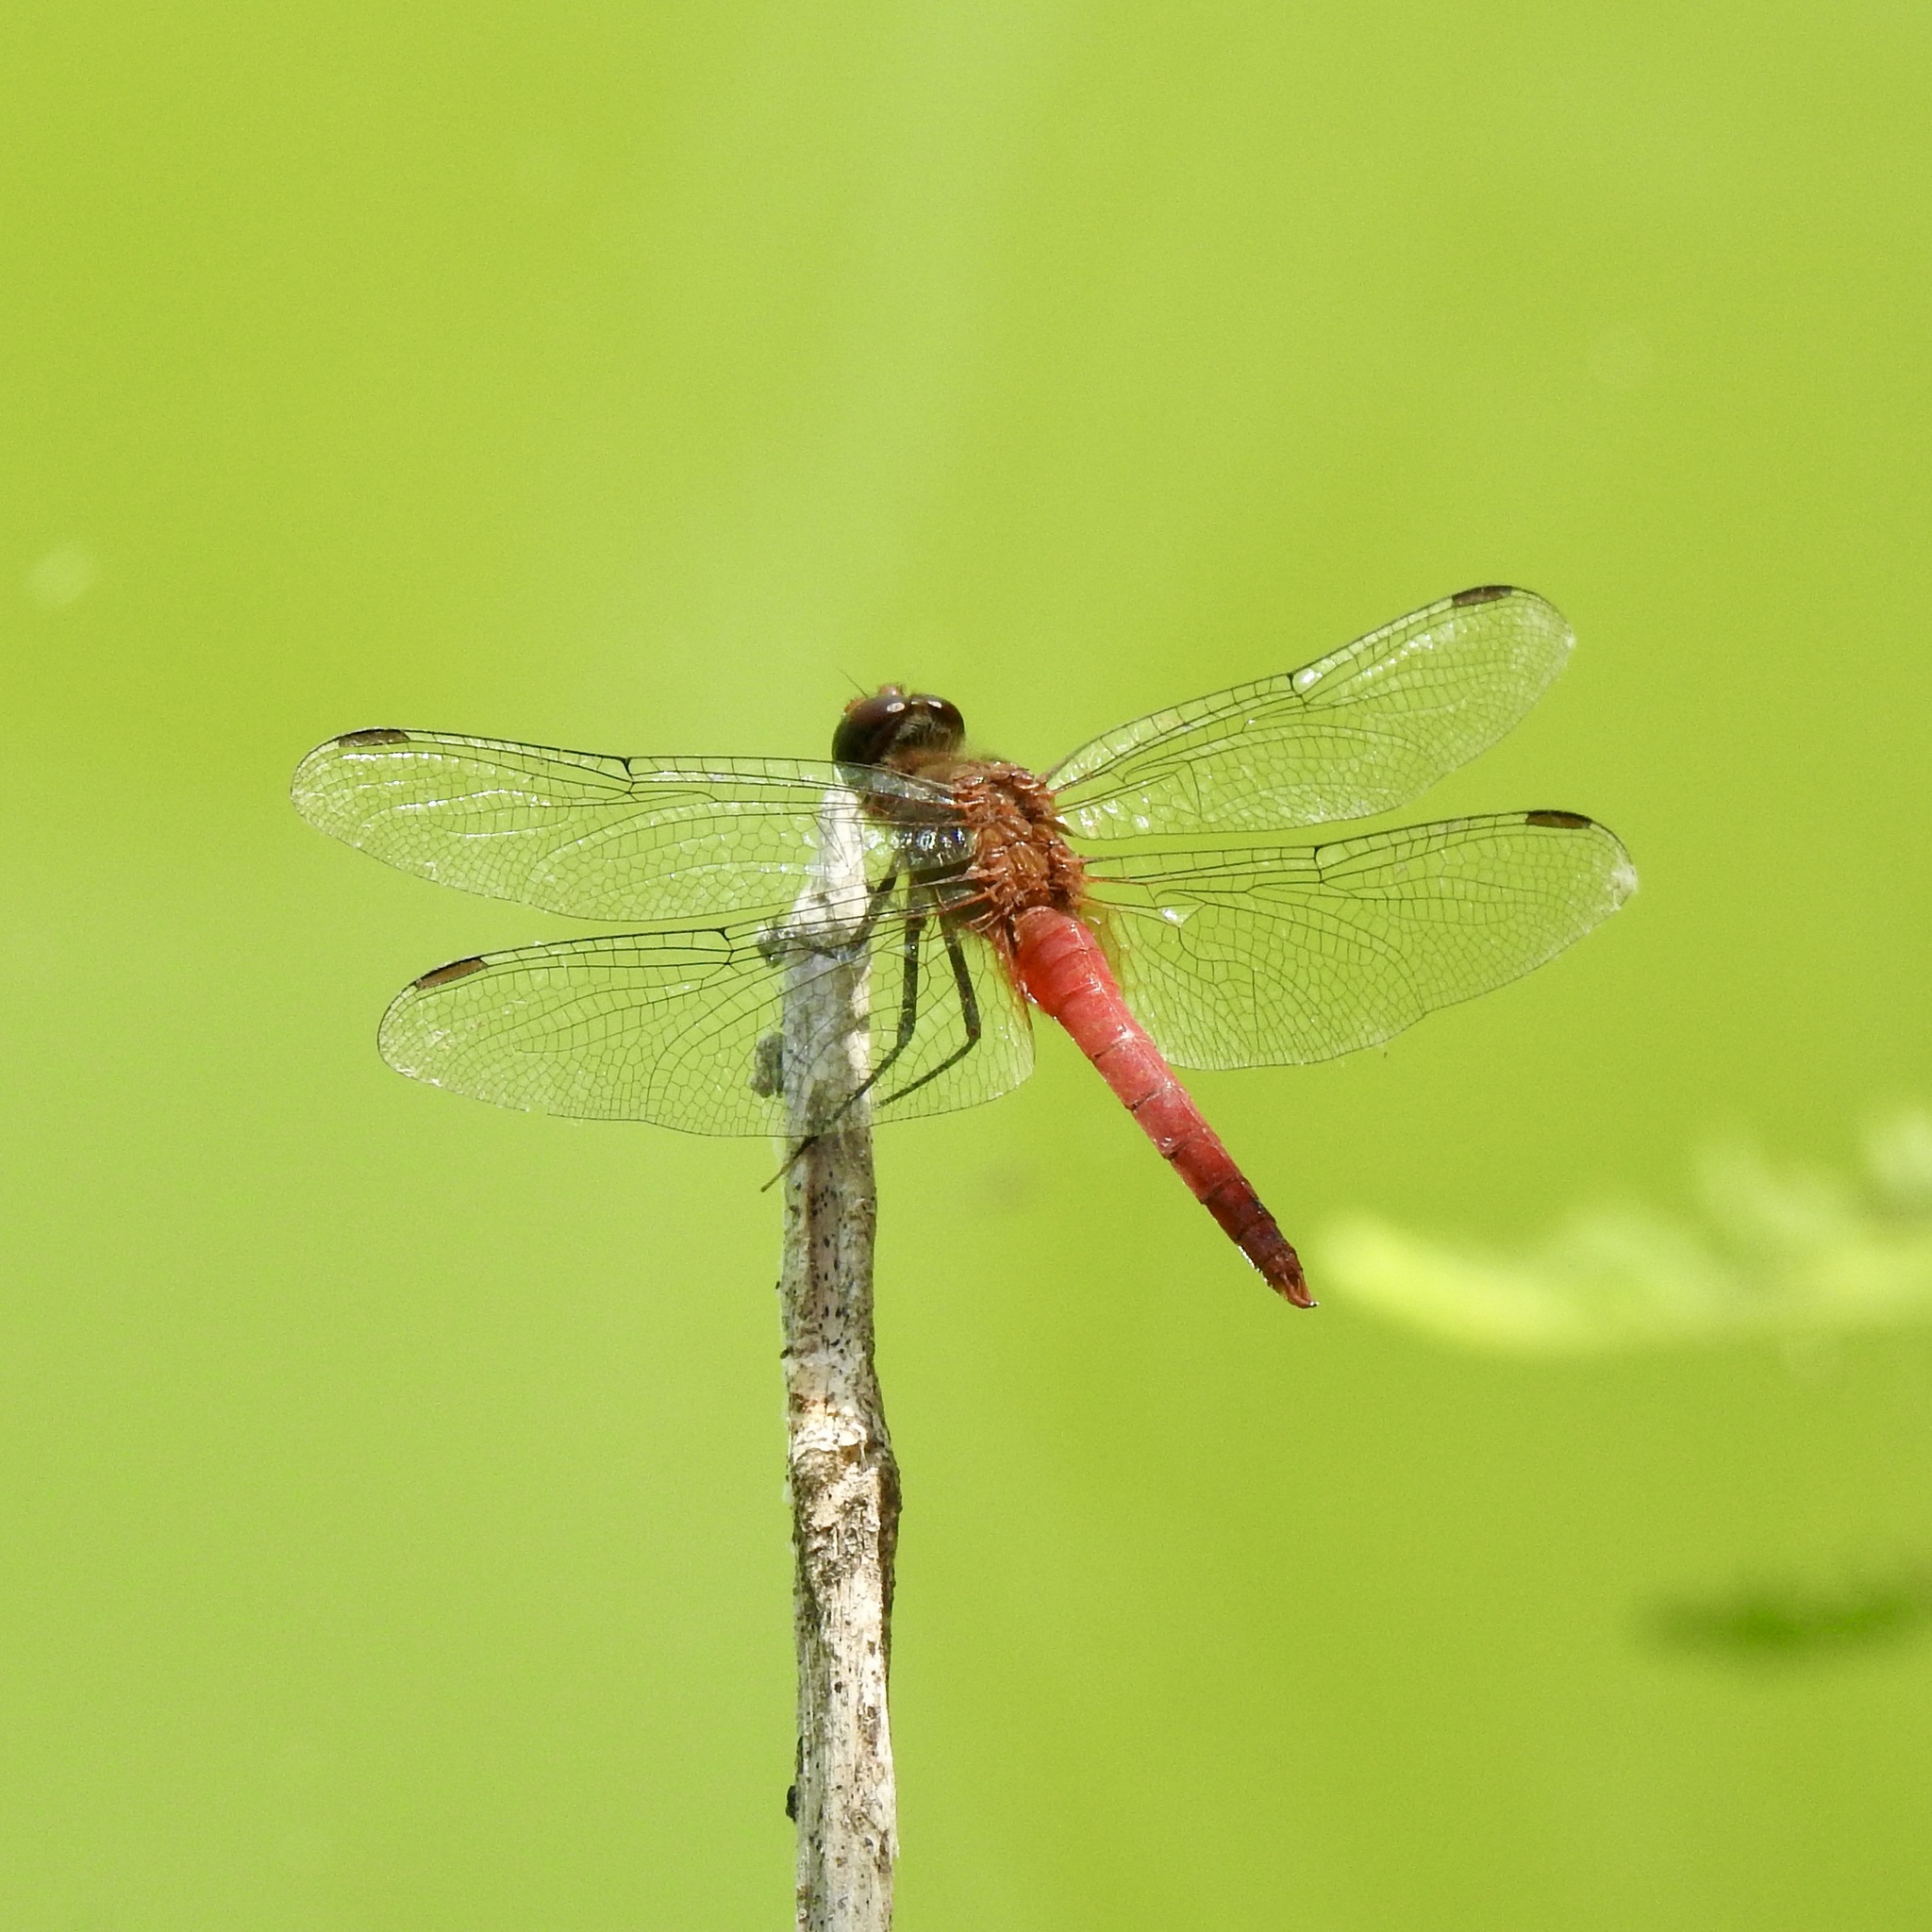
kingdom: Animalia
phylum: Arthropoda
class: Insecta
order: Odonata
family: Libellulidae
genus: Brachymesia
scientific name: Brachymesia furcata
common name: Red-taled pennant
